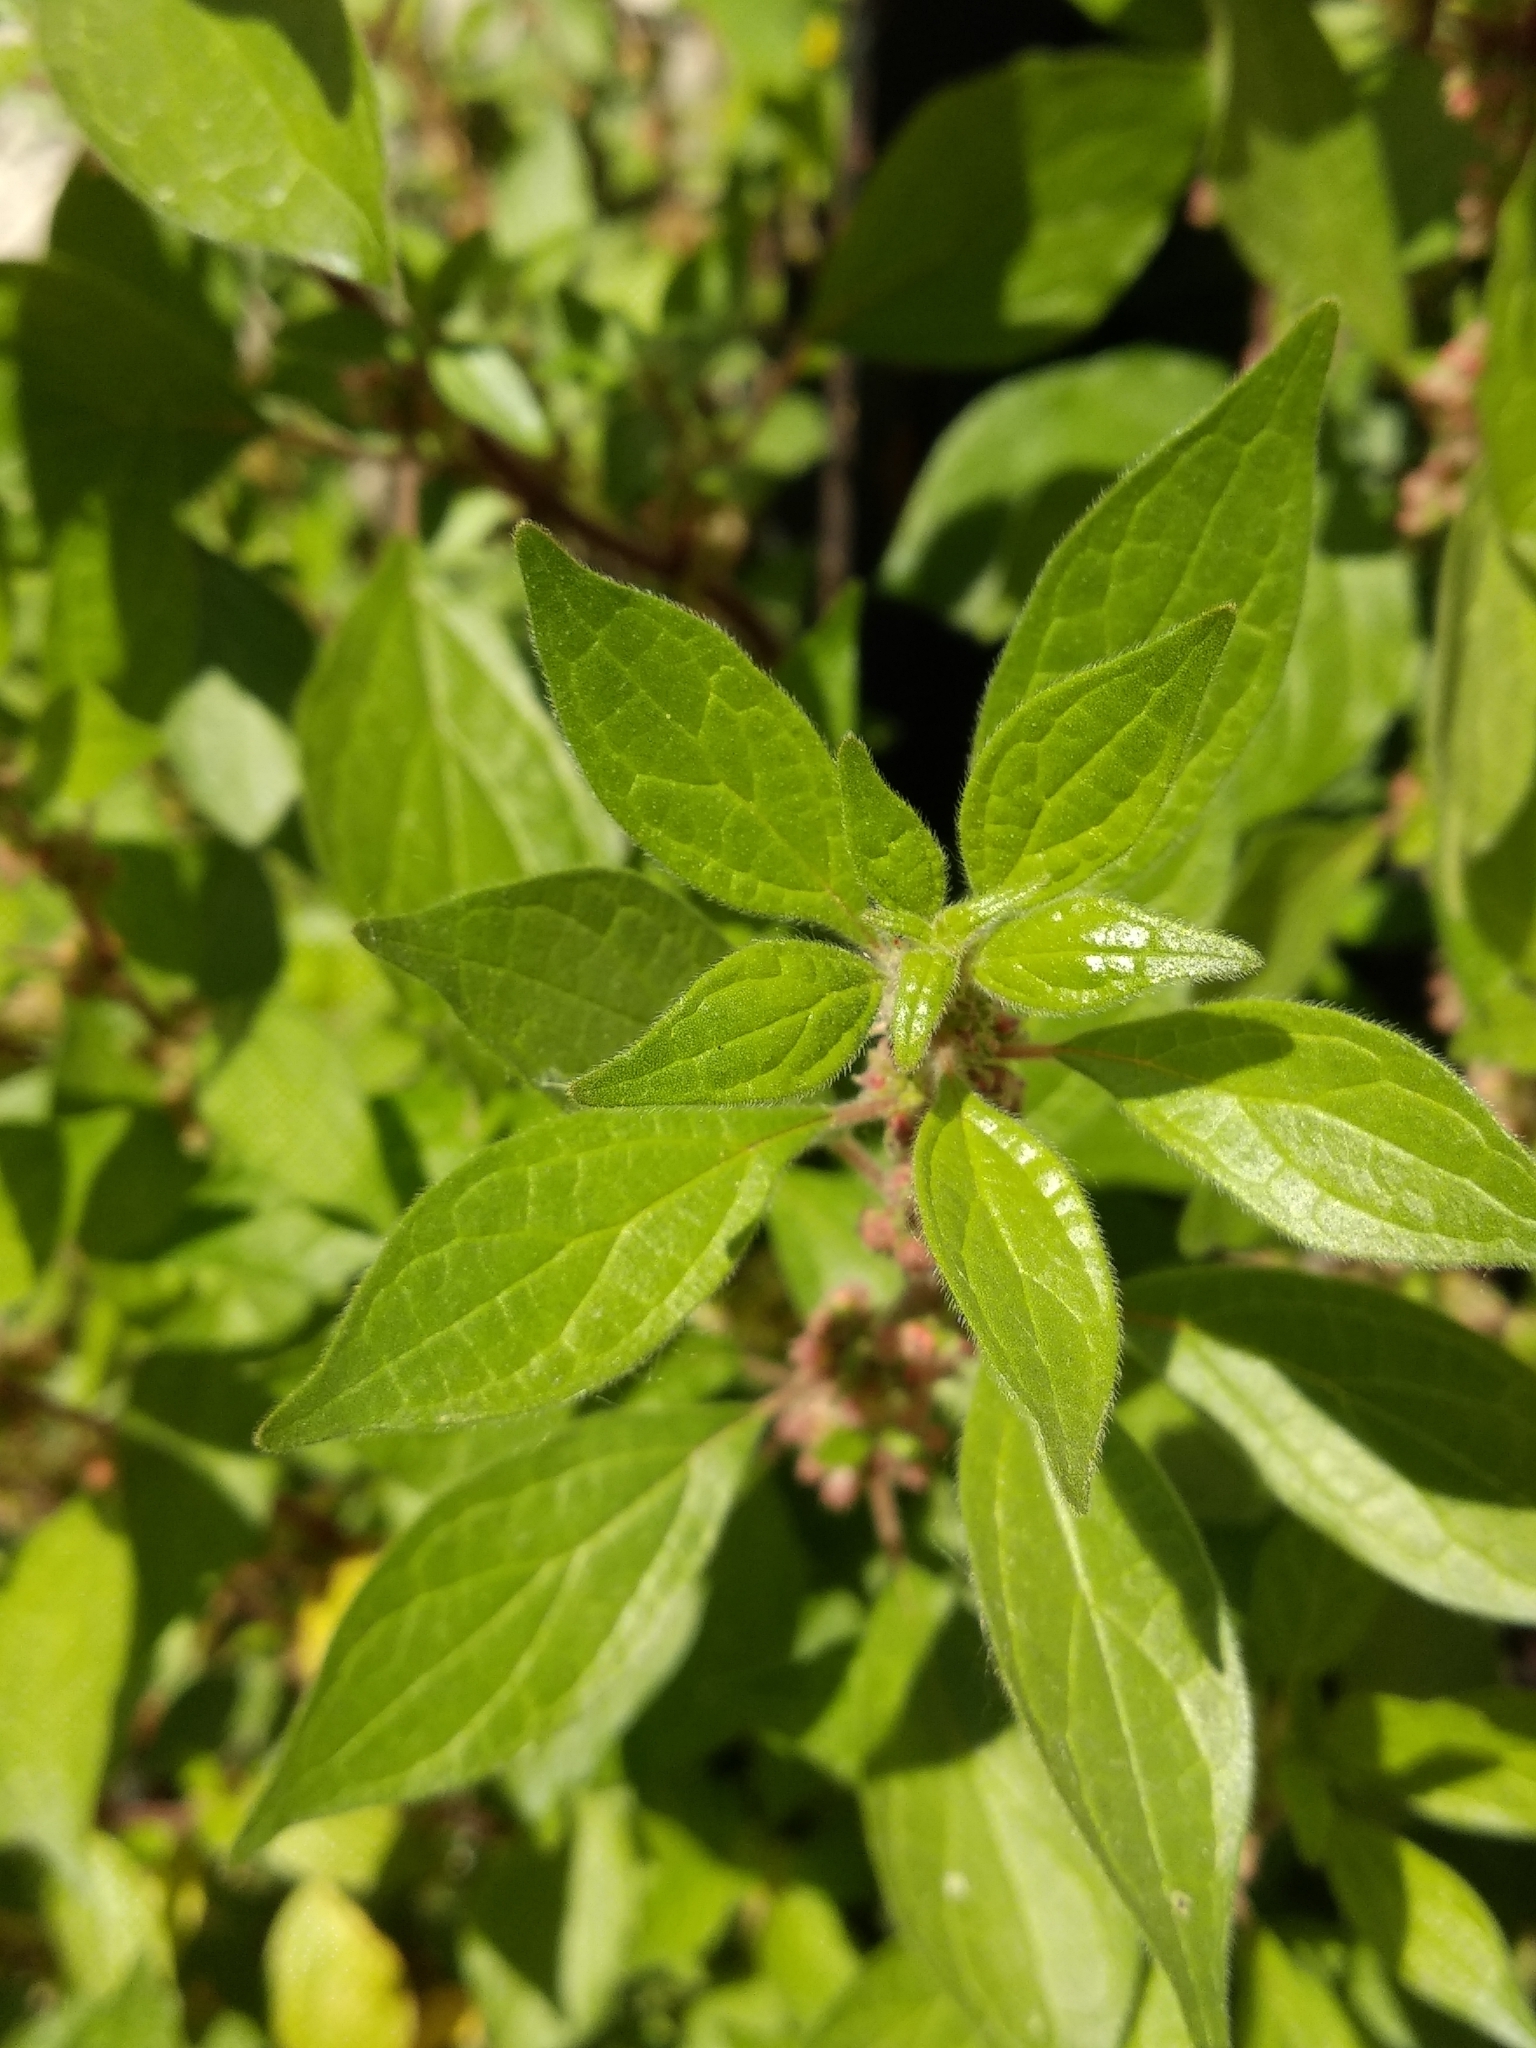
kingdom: Plantae
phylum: Tracheophyta
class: Magnoliopsida
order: Rosales
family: Urticaceae
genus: Parietaria
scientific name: Parietaria officinalis
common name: Eastern pellitory-of-the-wall
